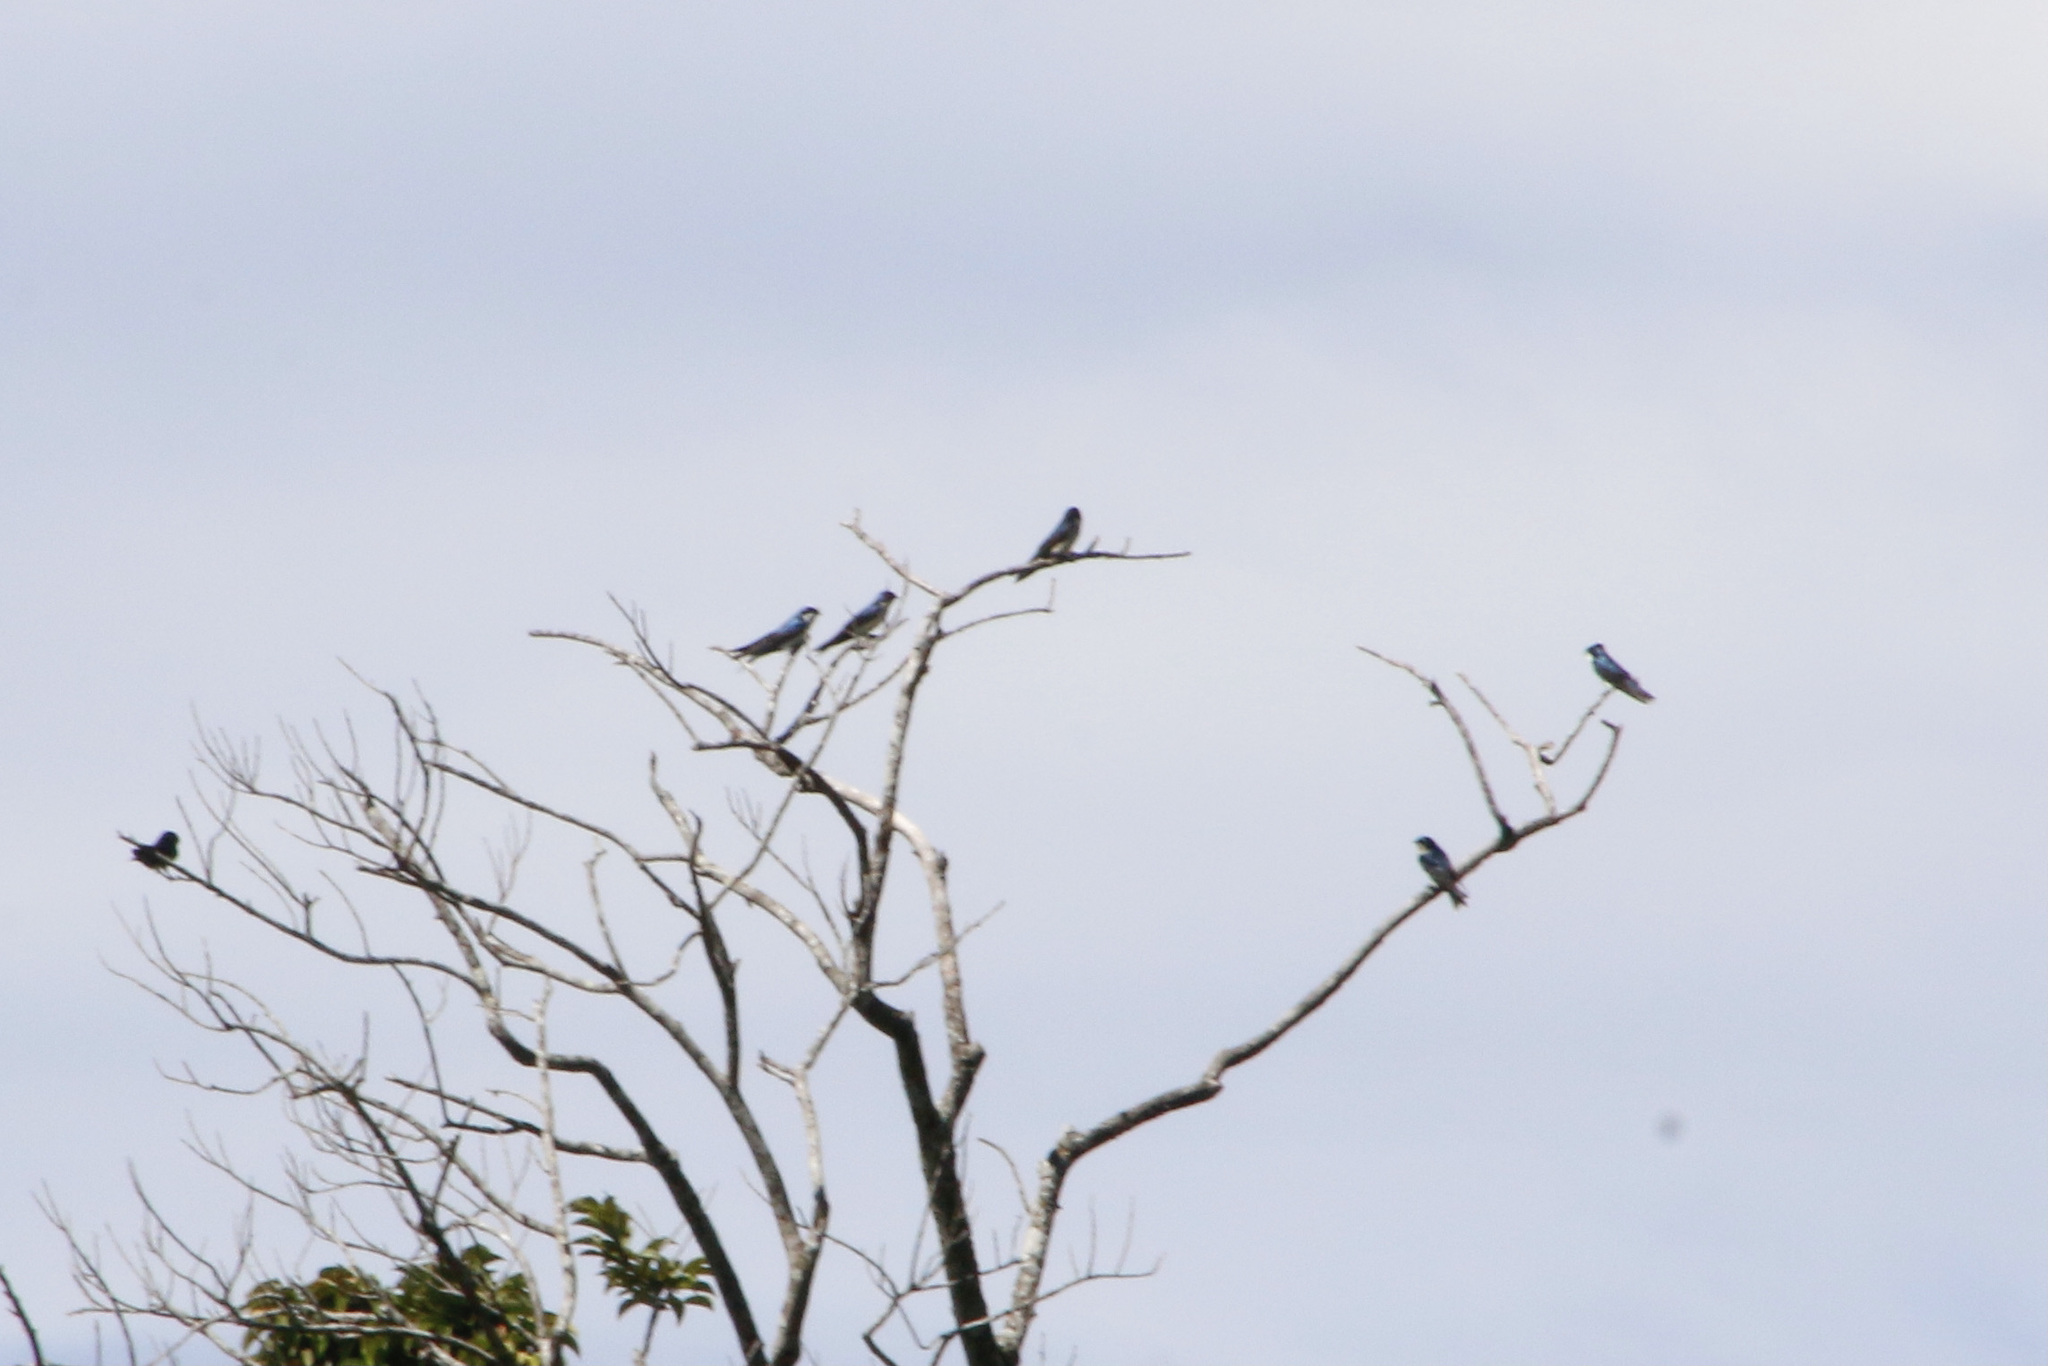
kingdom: Animalia
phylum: Chordata
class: Aves
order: Passeriformes
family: Hirundinidae
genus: Notiochelidon
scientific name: Notiochelidon cyanoleuca
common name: Blue-and-white swallow
